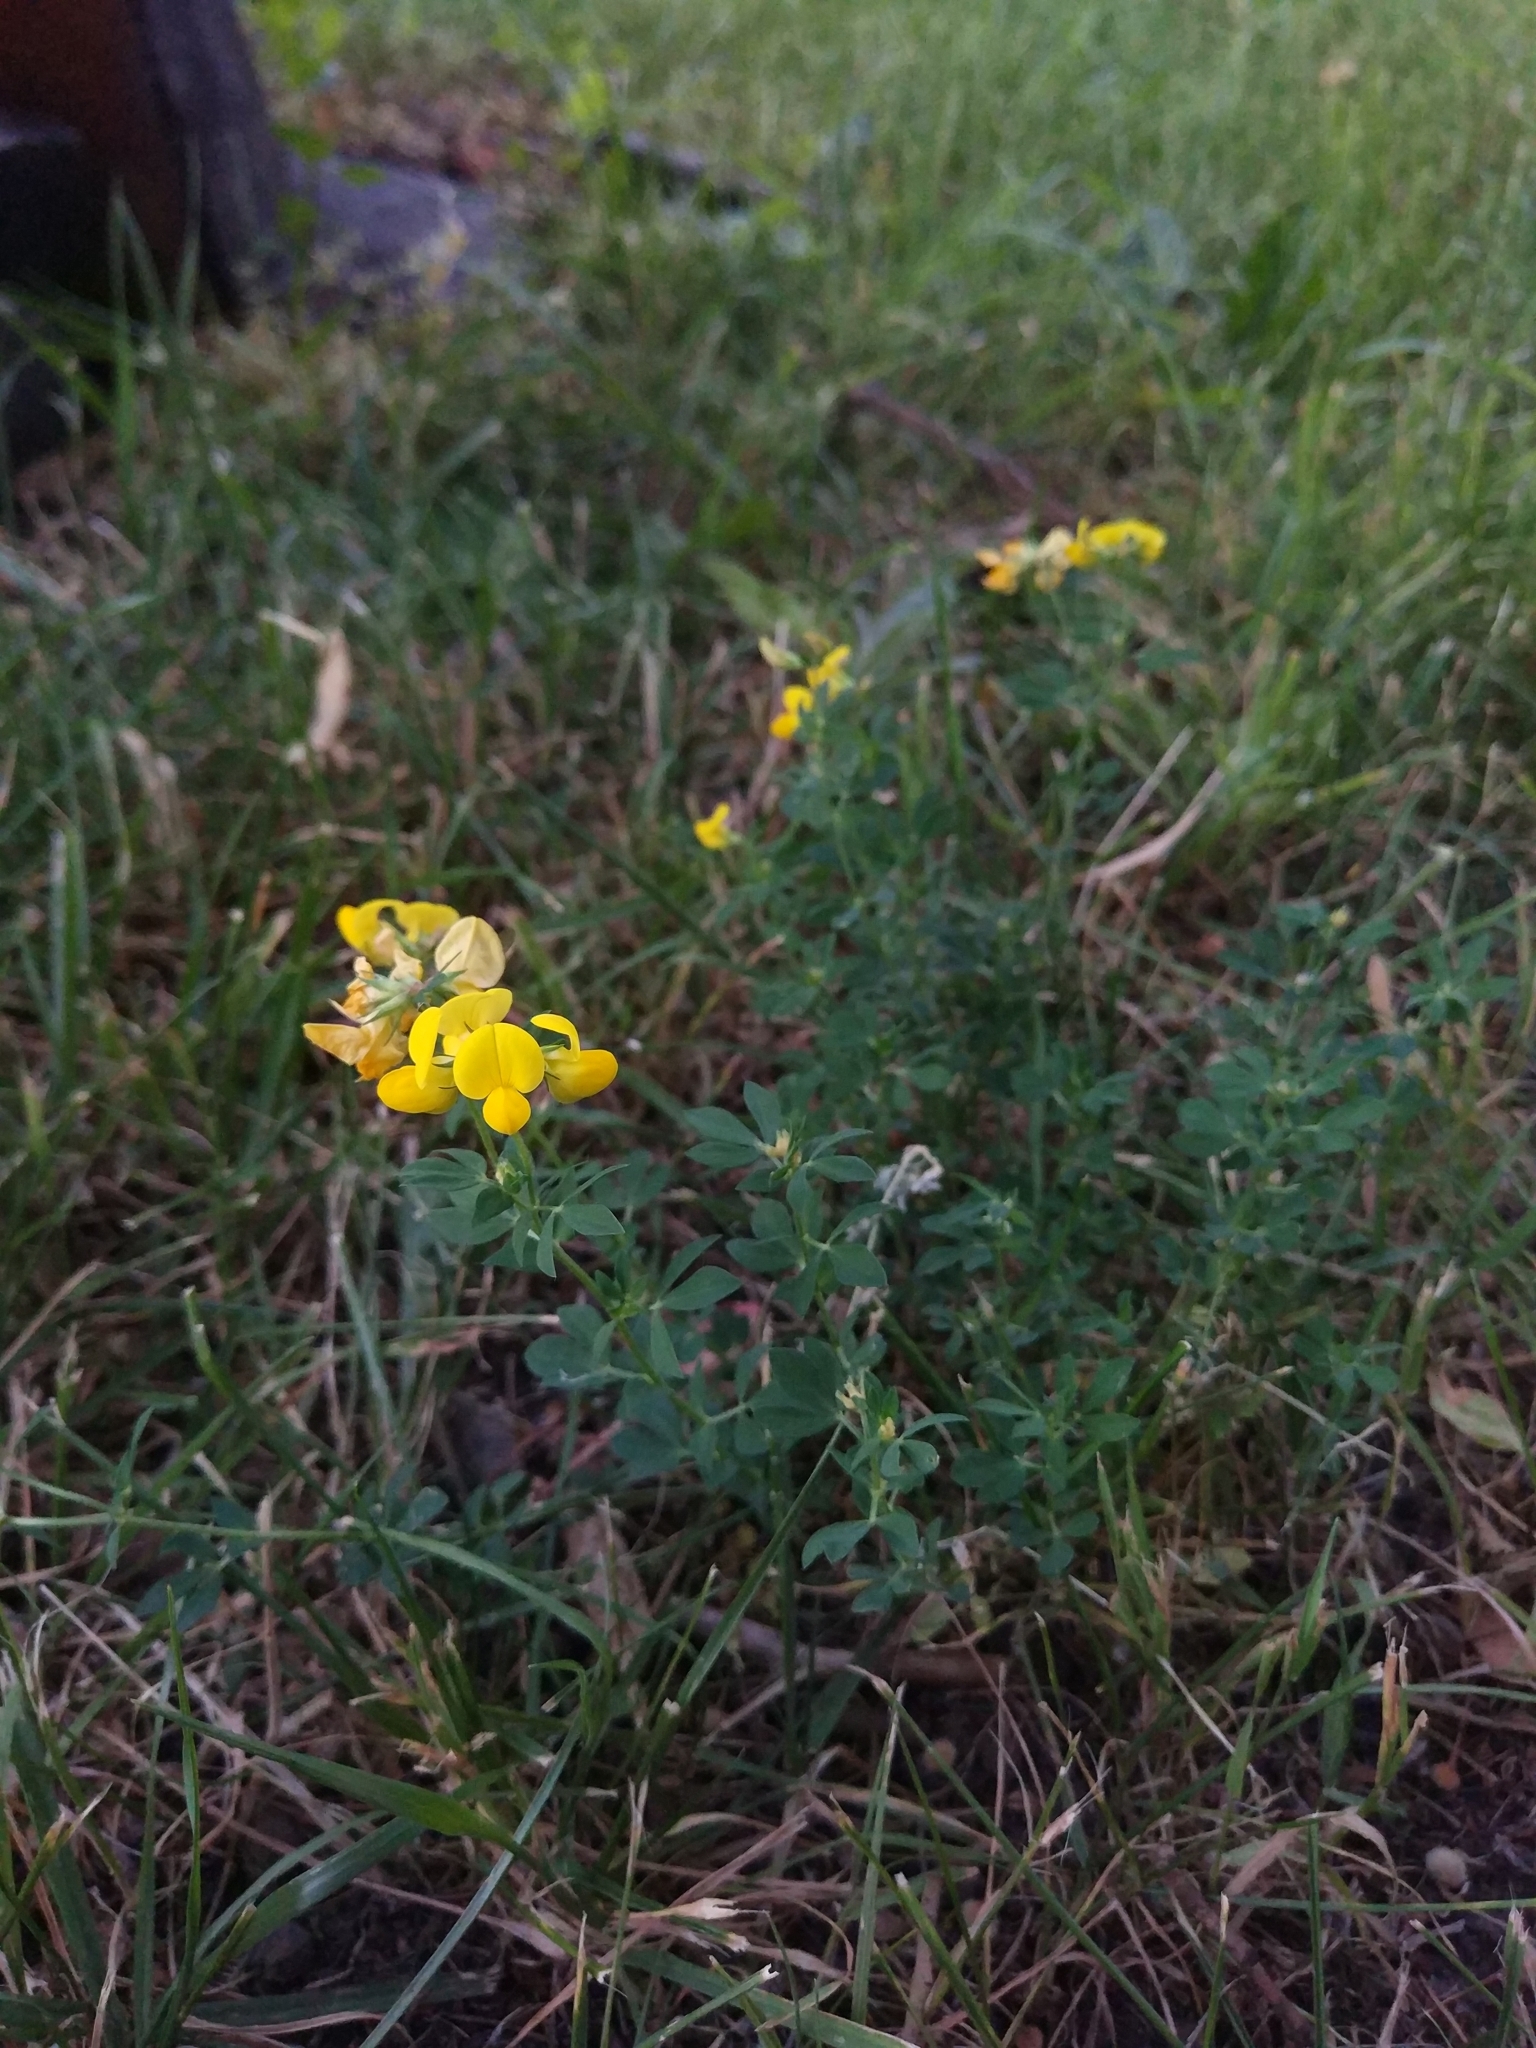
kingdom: Plantae
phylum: Tracheophyta
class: Magnoliopsida
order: Fabales
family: Fabaceae
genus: Lotus
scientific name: Lotus corniculatus
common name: Common bird's-foot-trefoil
